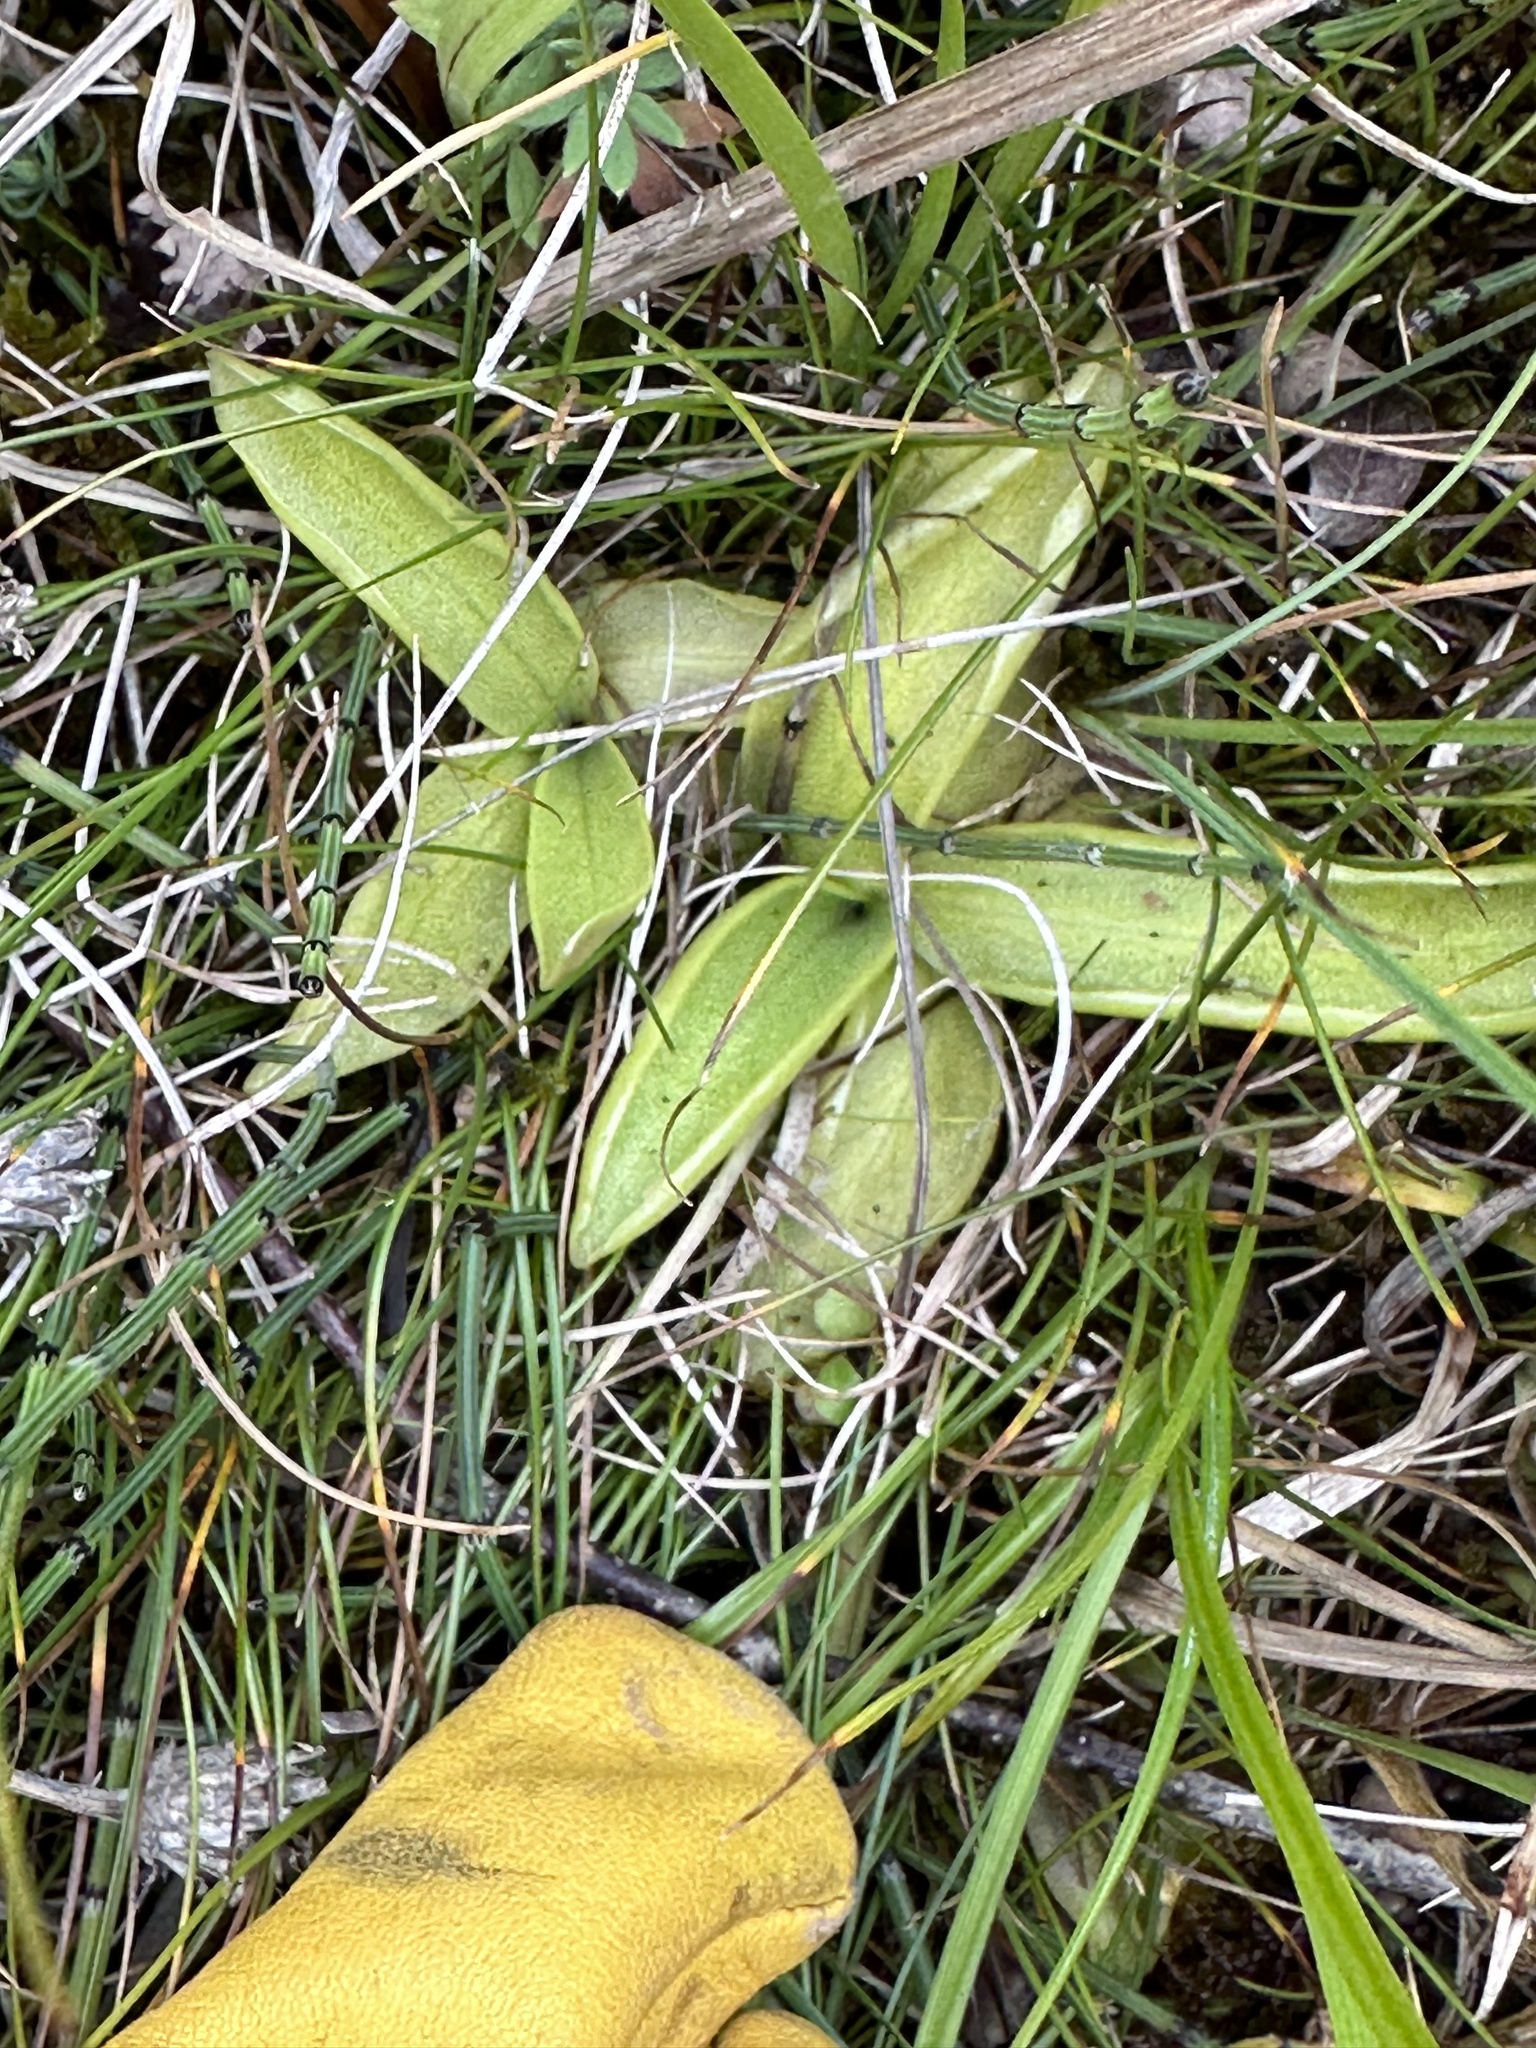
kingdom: Plantae
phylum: Tracheophyta
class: Magnoliopsida
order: Lamiales
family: Lentibulariaceae
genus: Pinguicula
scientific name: Pinguicula vulgaris
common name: Common butterwort
